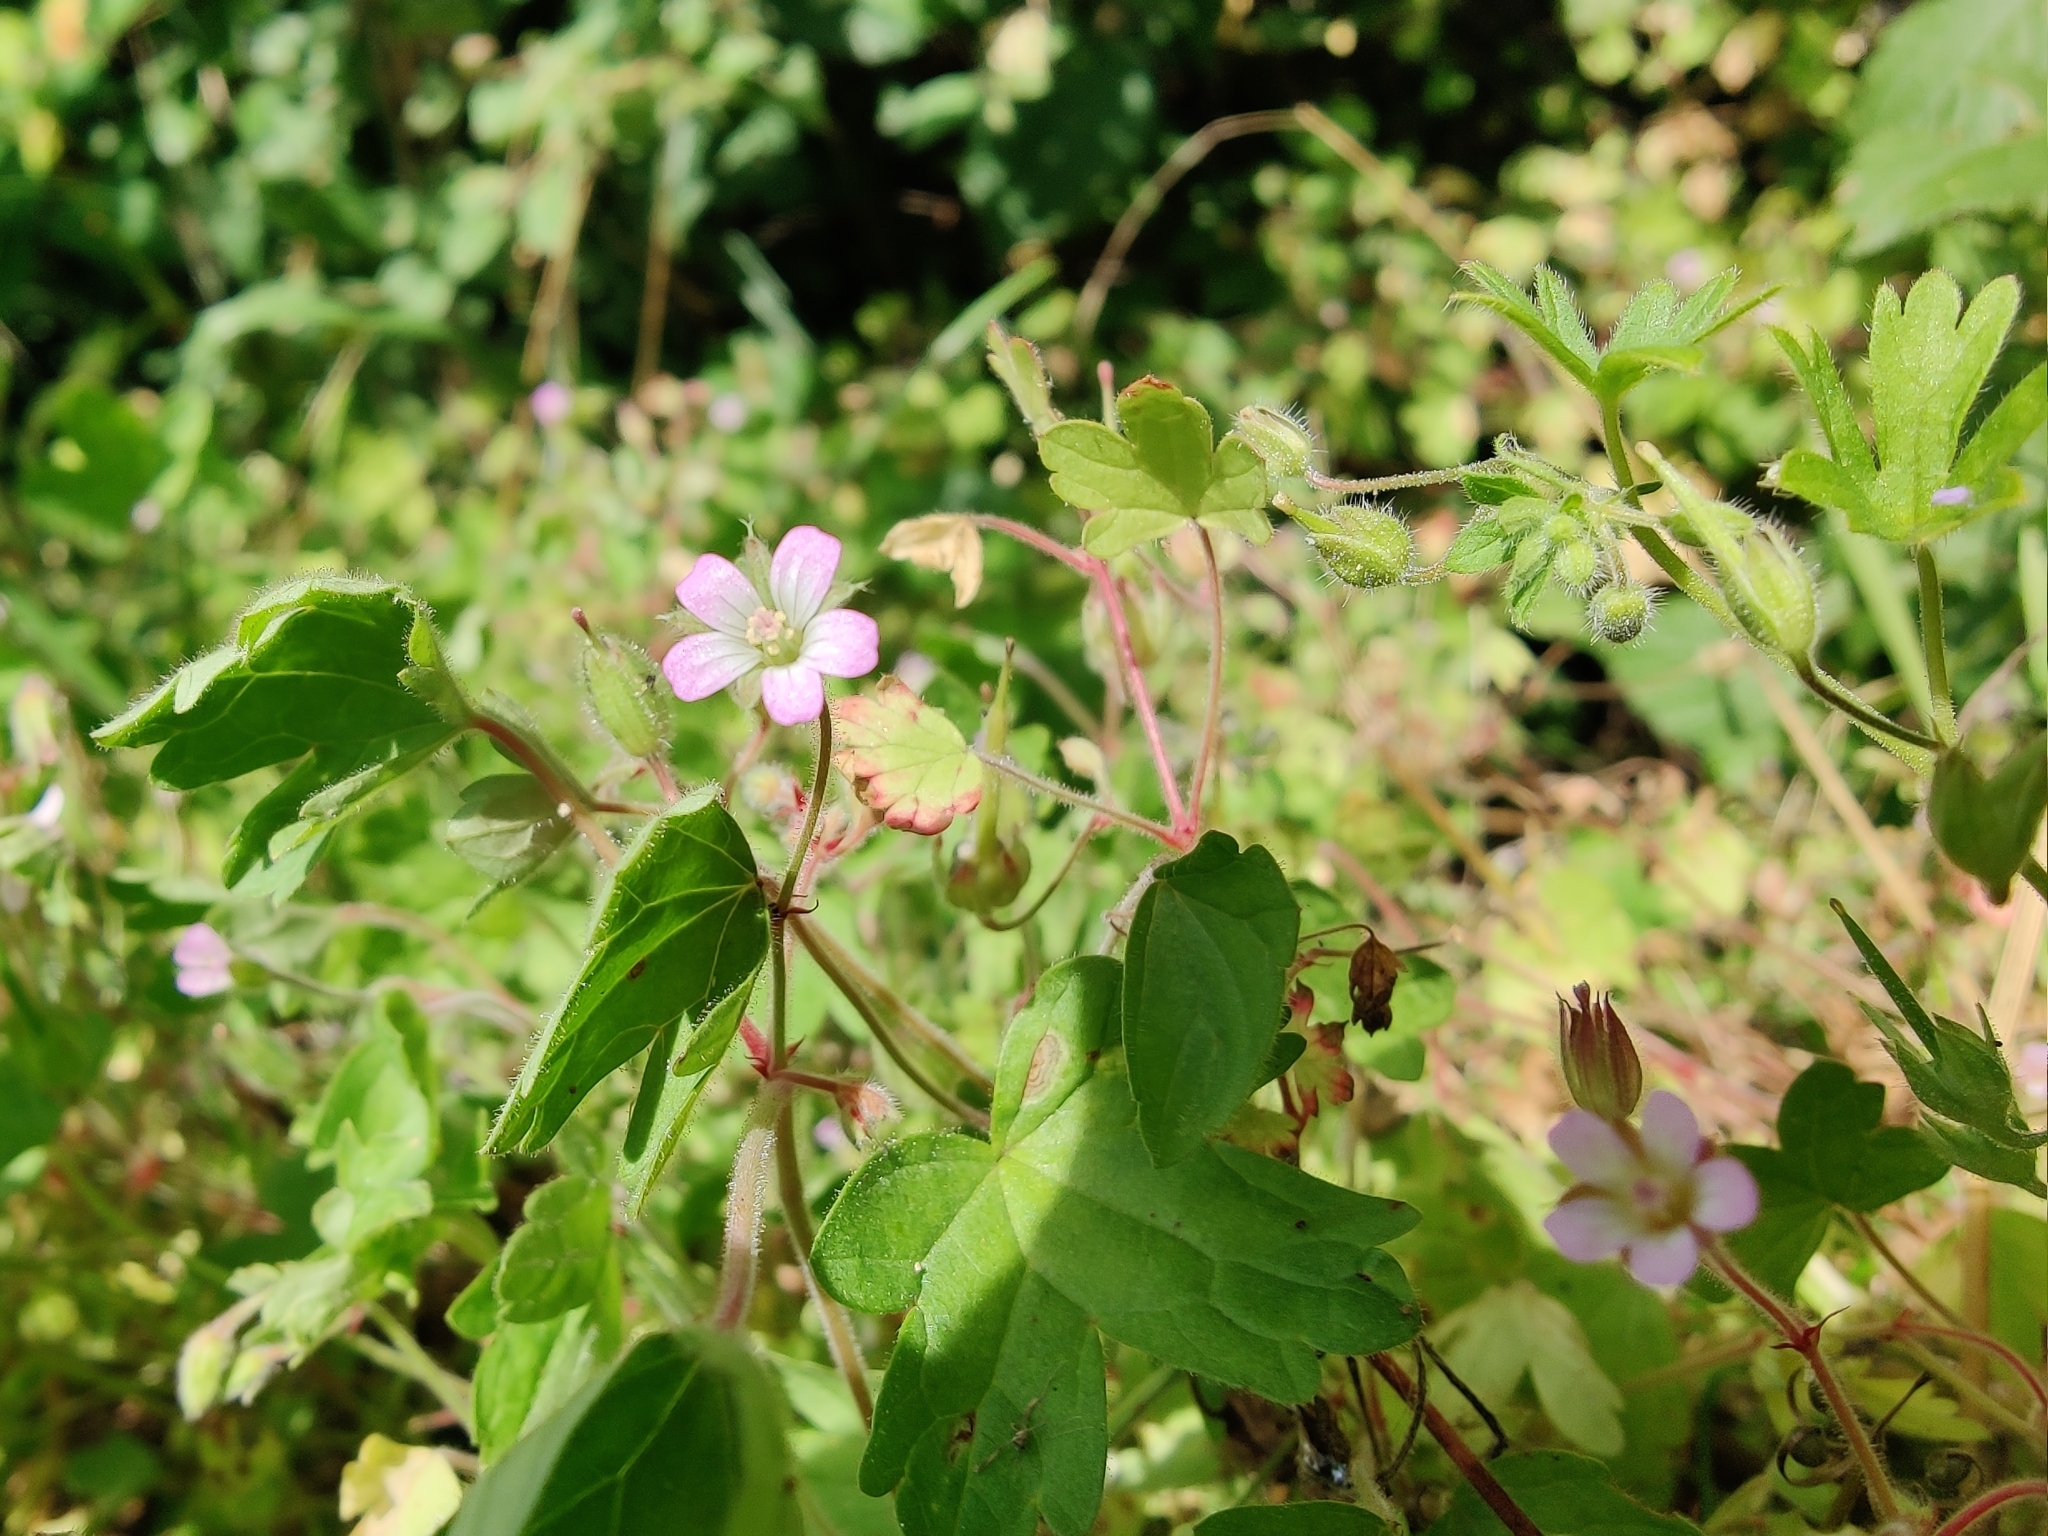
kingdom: Plantae
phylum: Tracheophyta
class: Magnoliopsida
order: Geraniales
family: Geraniaceae
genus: Geranium
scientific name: Geranium rotundifolium
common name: Round-leaved crane's-bill
